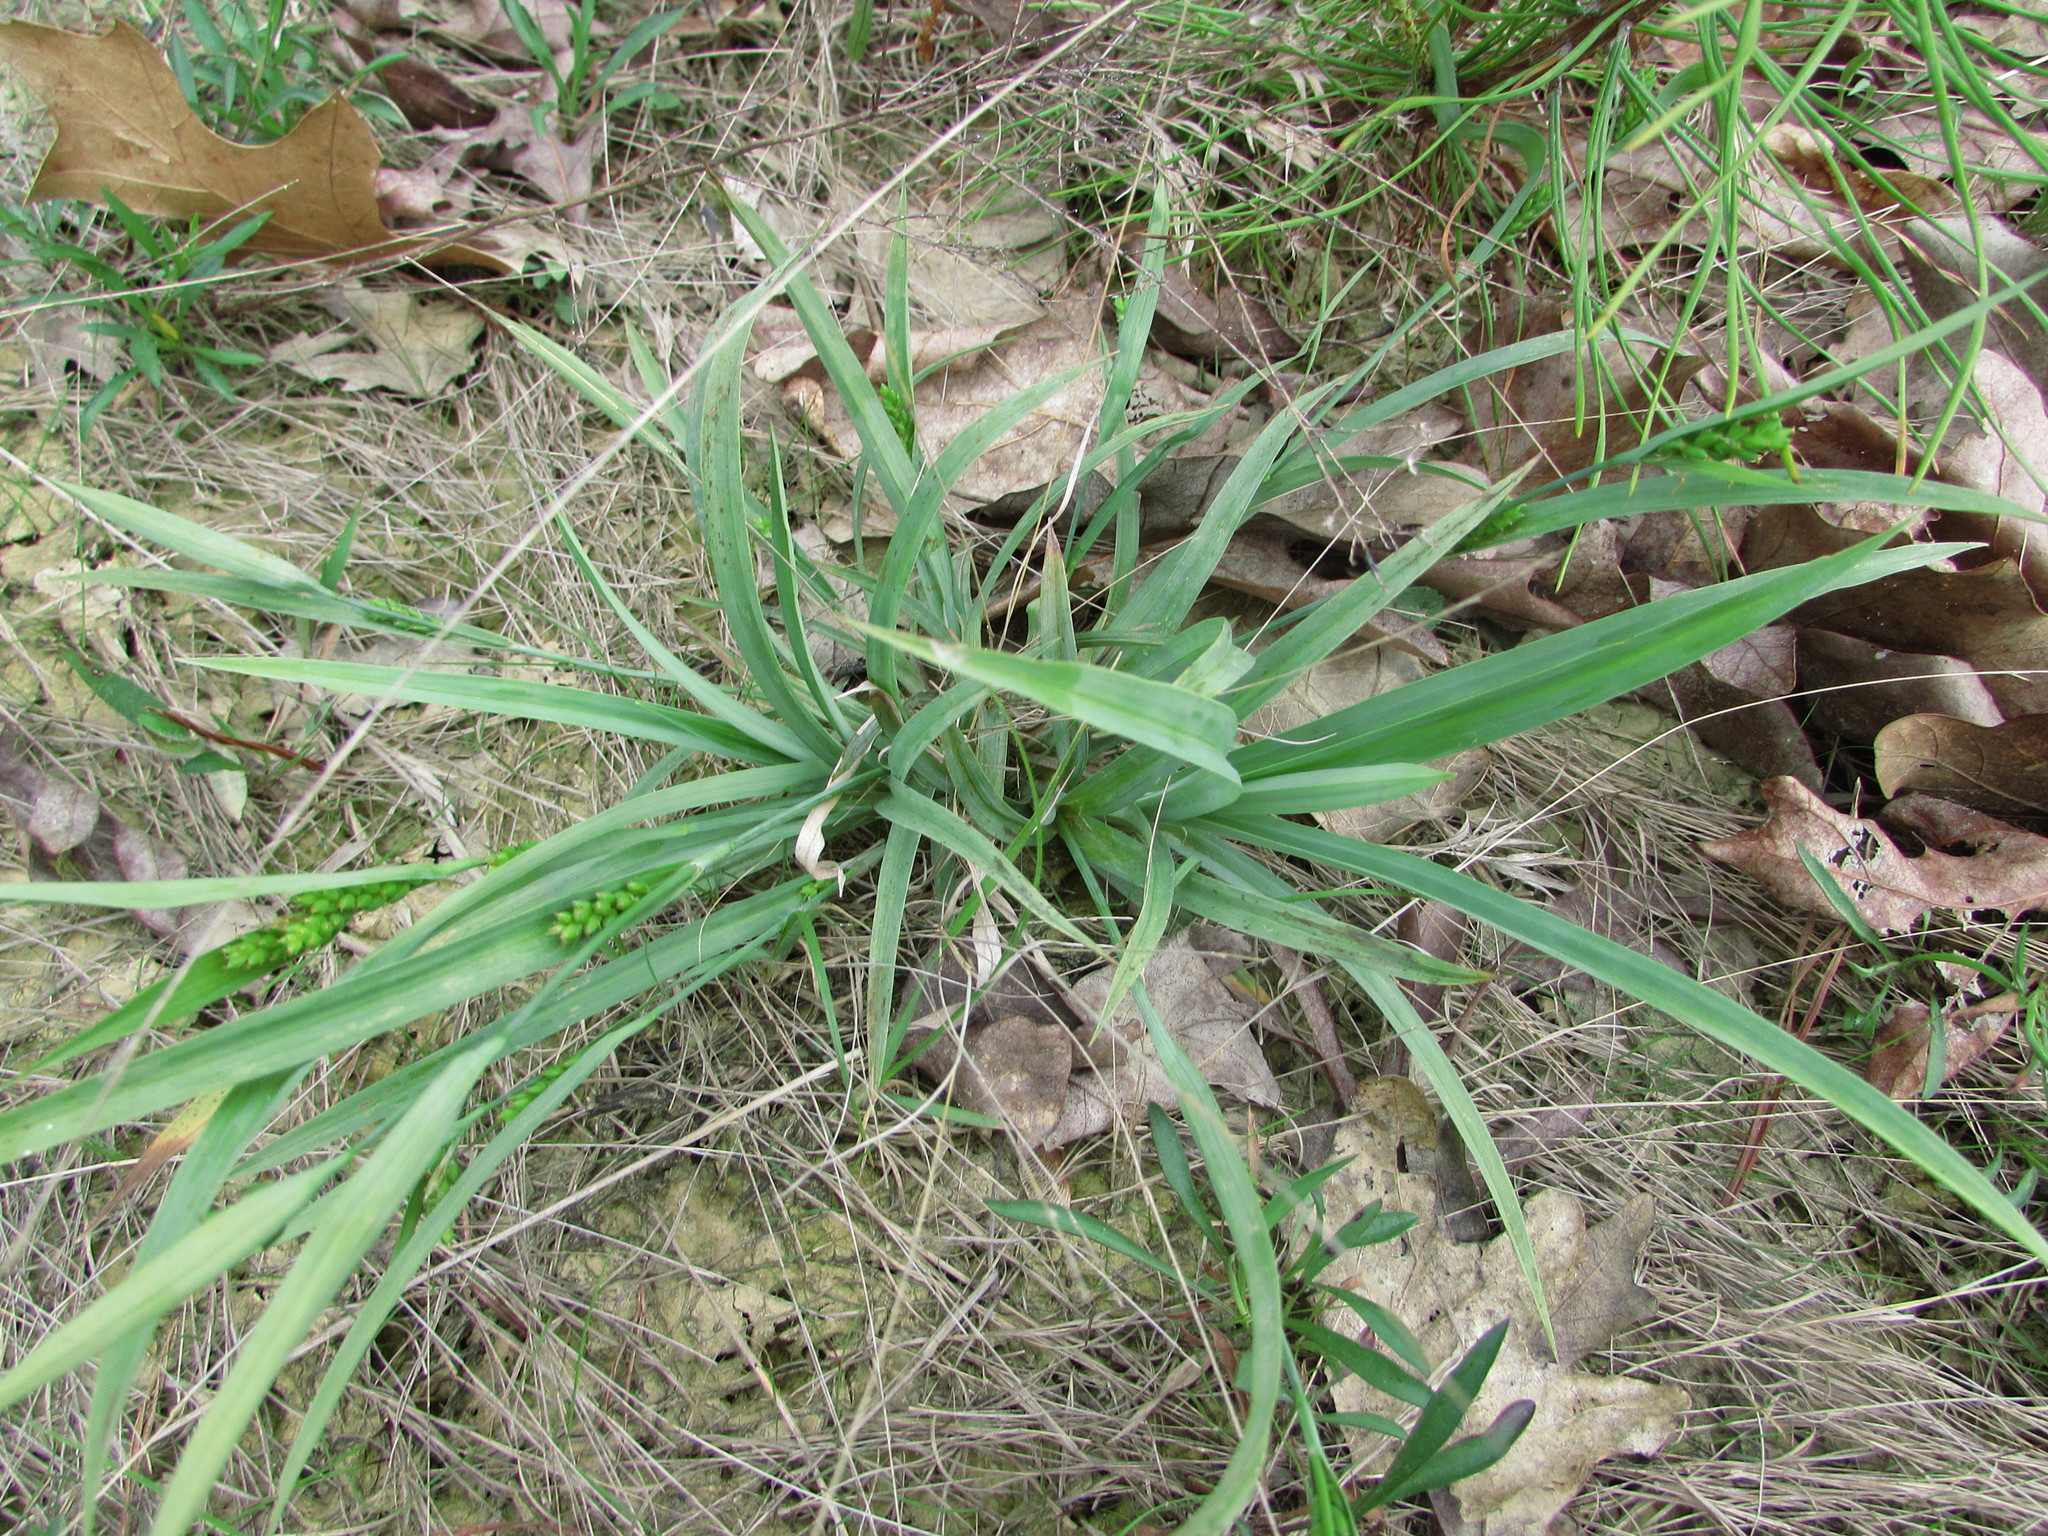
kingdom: Plantae
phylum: Tracheophyta
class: Liliopsida
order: Poales
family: Cyperaceae
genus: Carex
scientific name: Carex glaucodea
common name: Blue sedge
